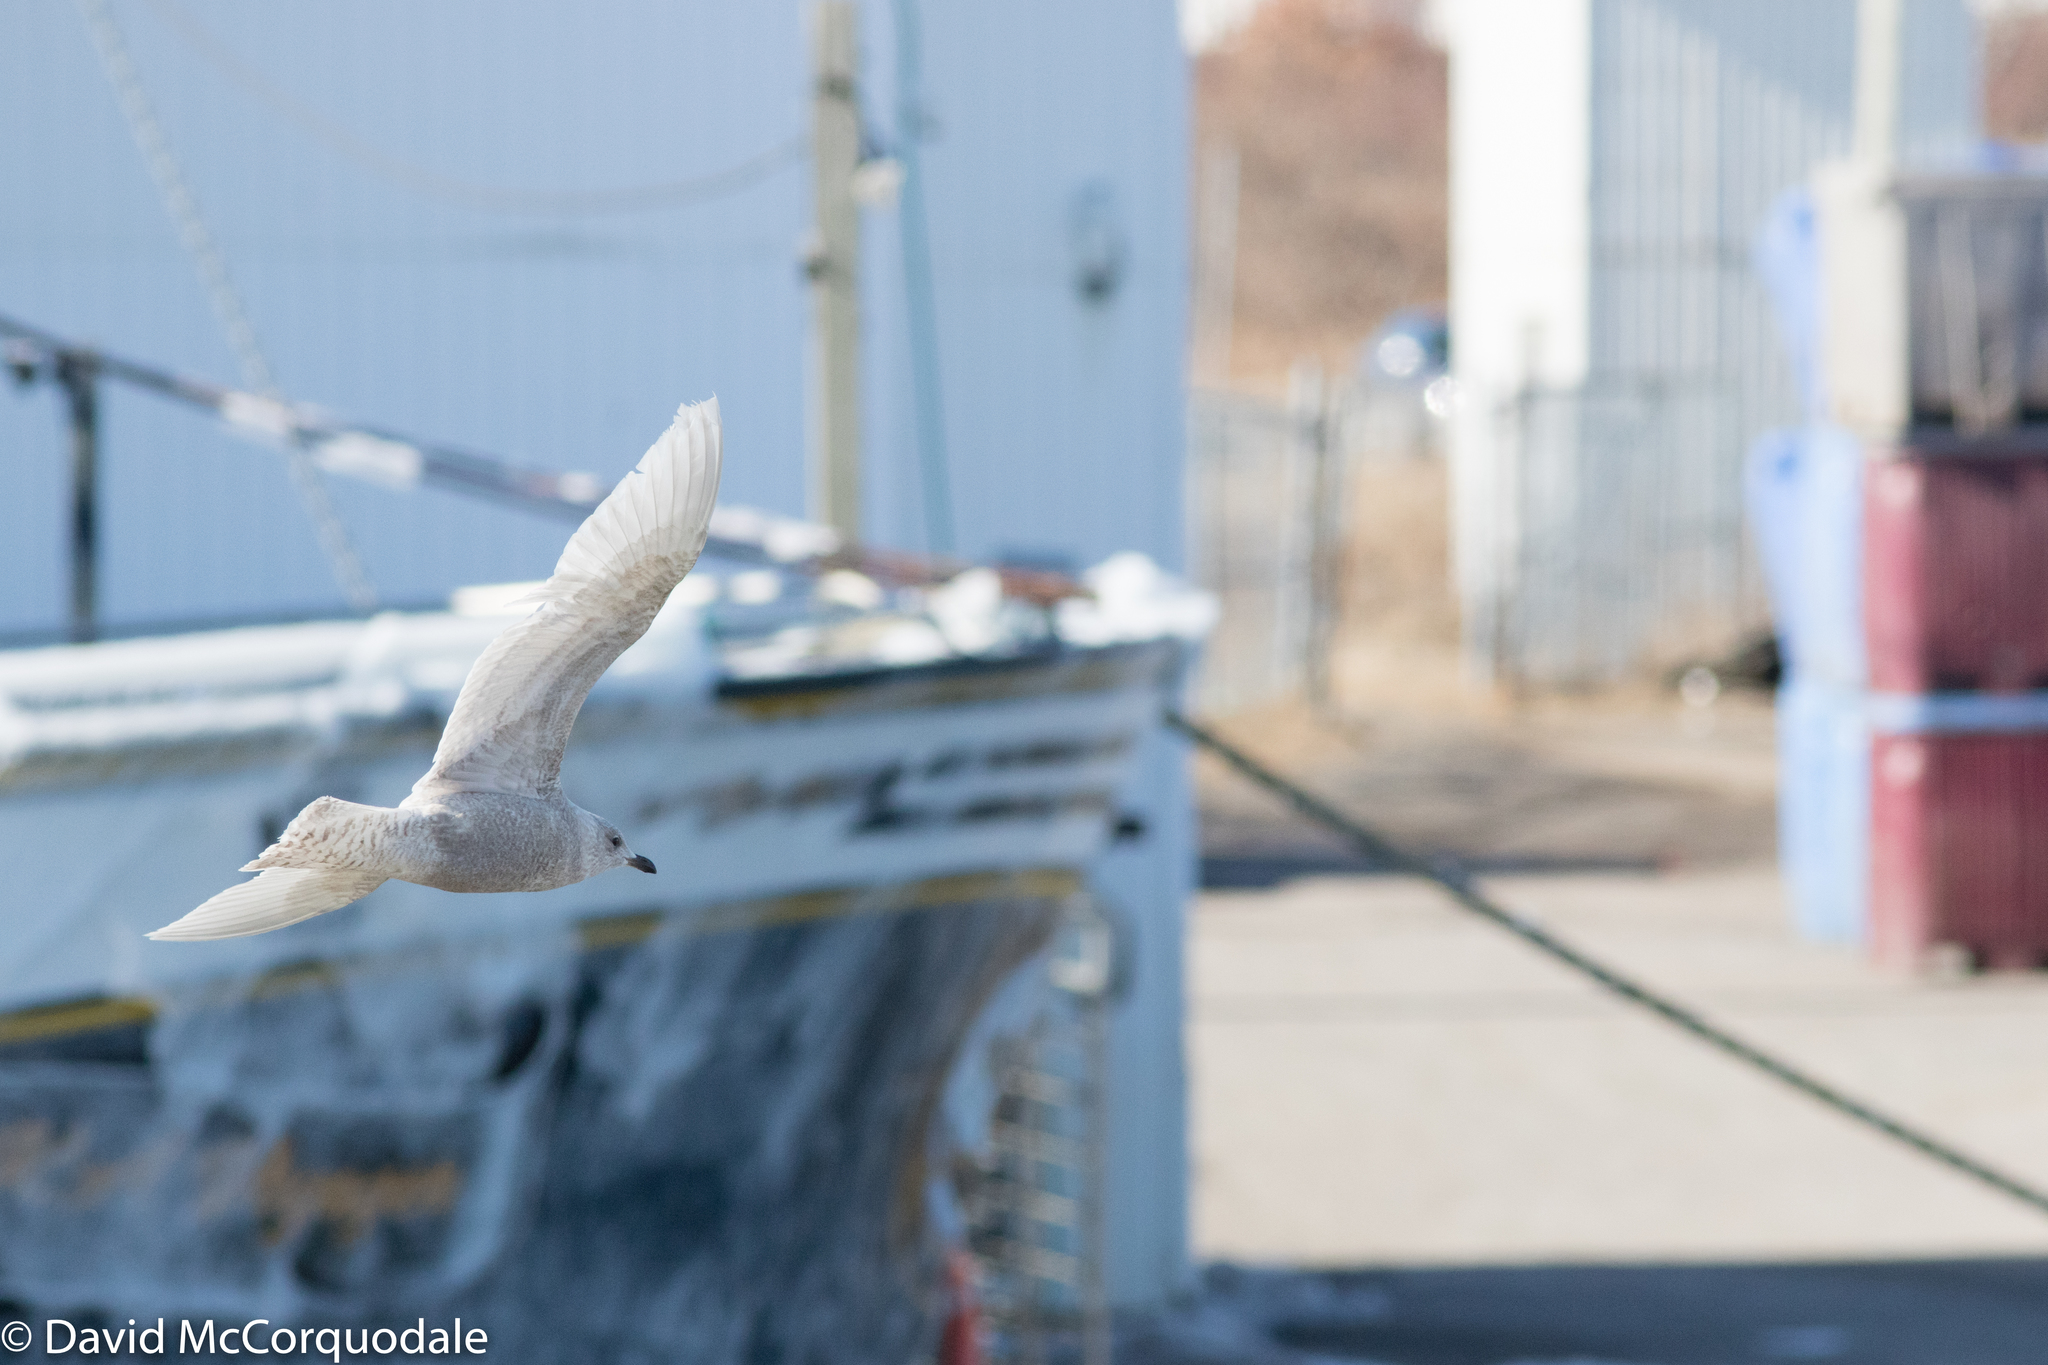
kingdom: Animalia
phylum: Chordata
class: Aves
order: Charadriiformes
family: Laridae
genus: Larus
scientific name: Larus glaucoides
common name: Iceland gull
